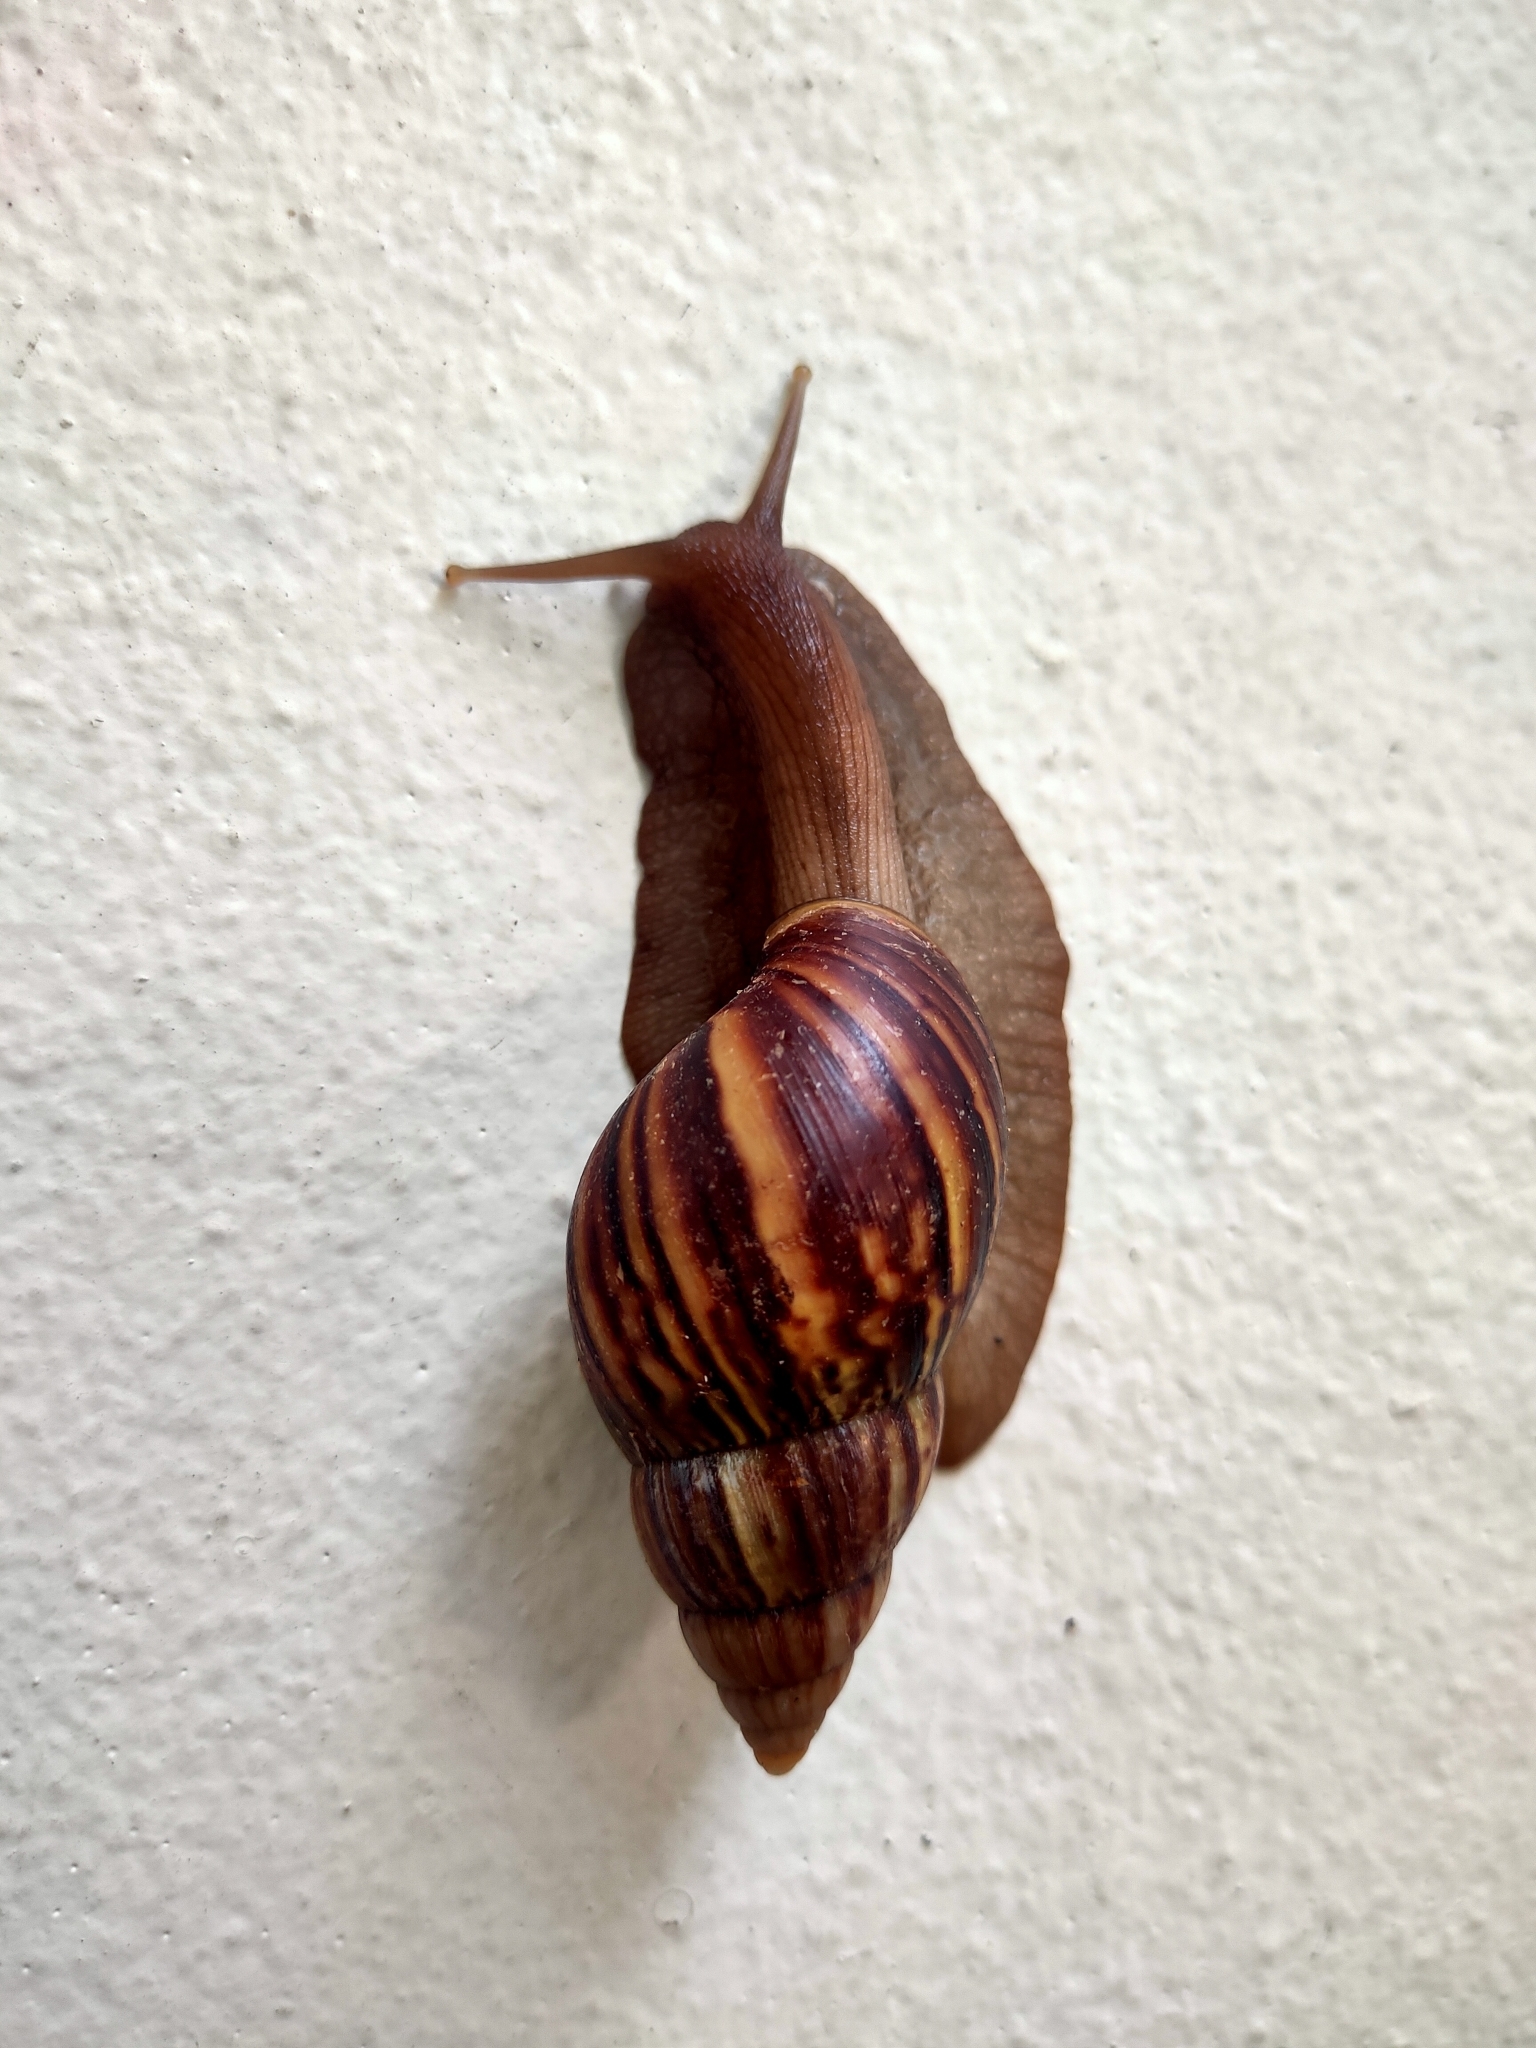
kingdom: Animalia
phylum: Mollusca
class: Gastropoda
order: Stylommatophora
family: Achatinidae
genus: Lissachatina
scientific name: Lissachatina fulica
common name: Giant african snail
